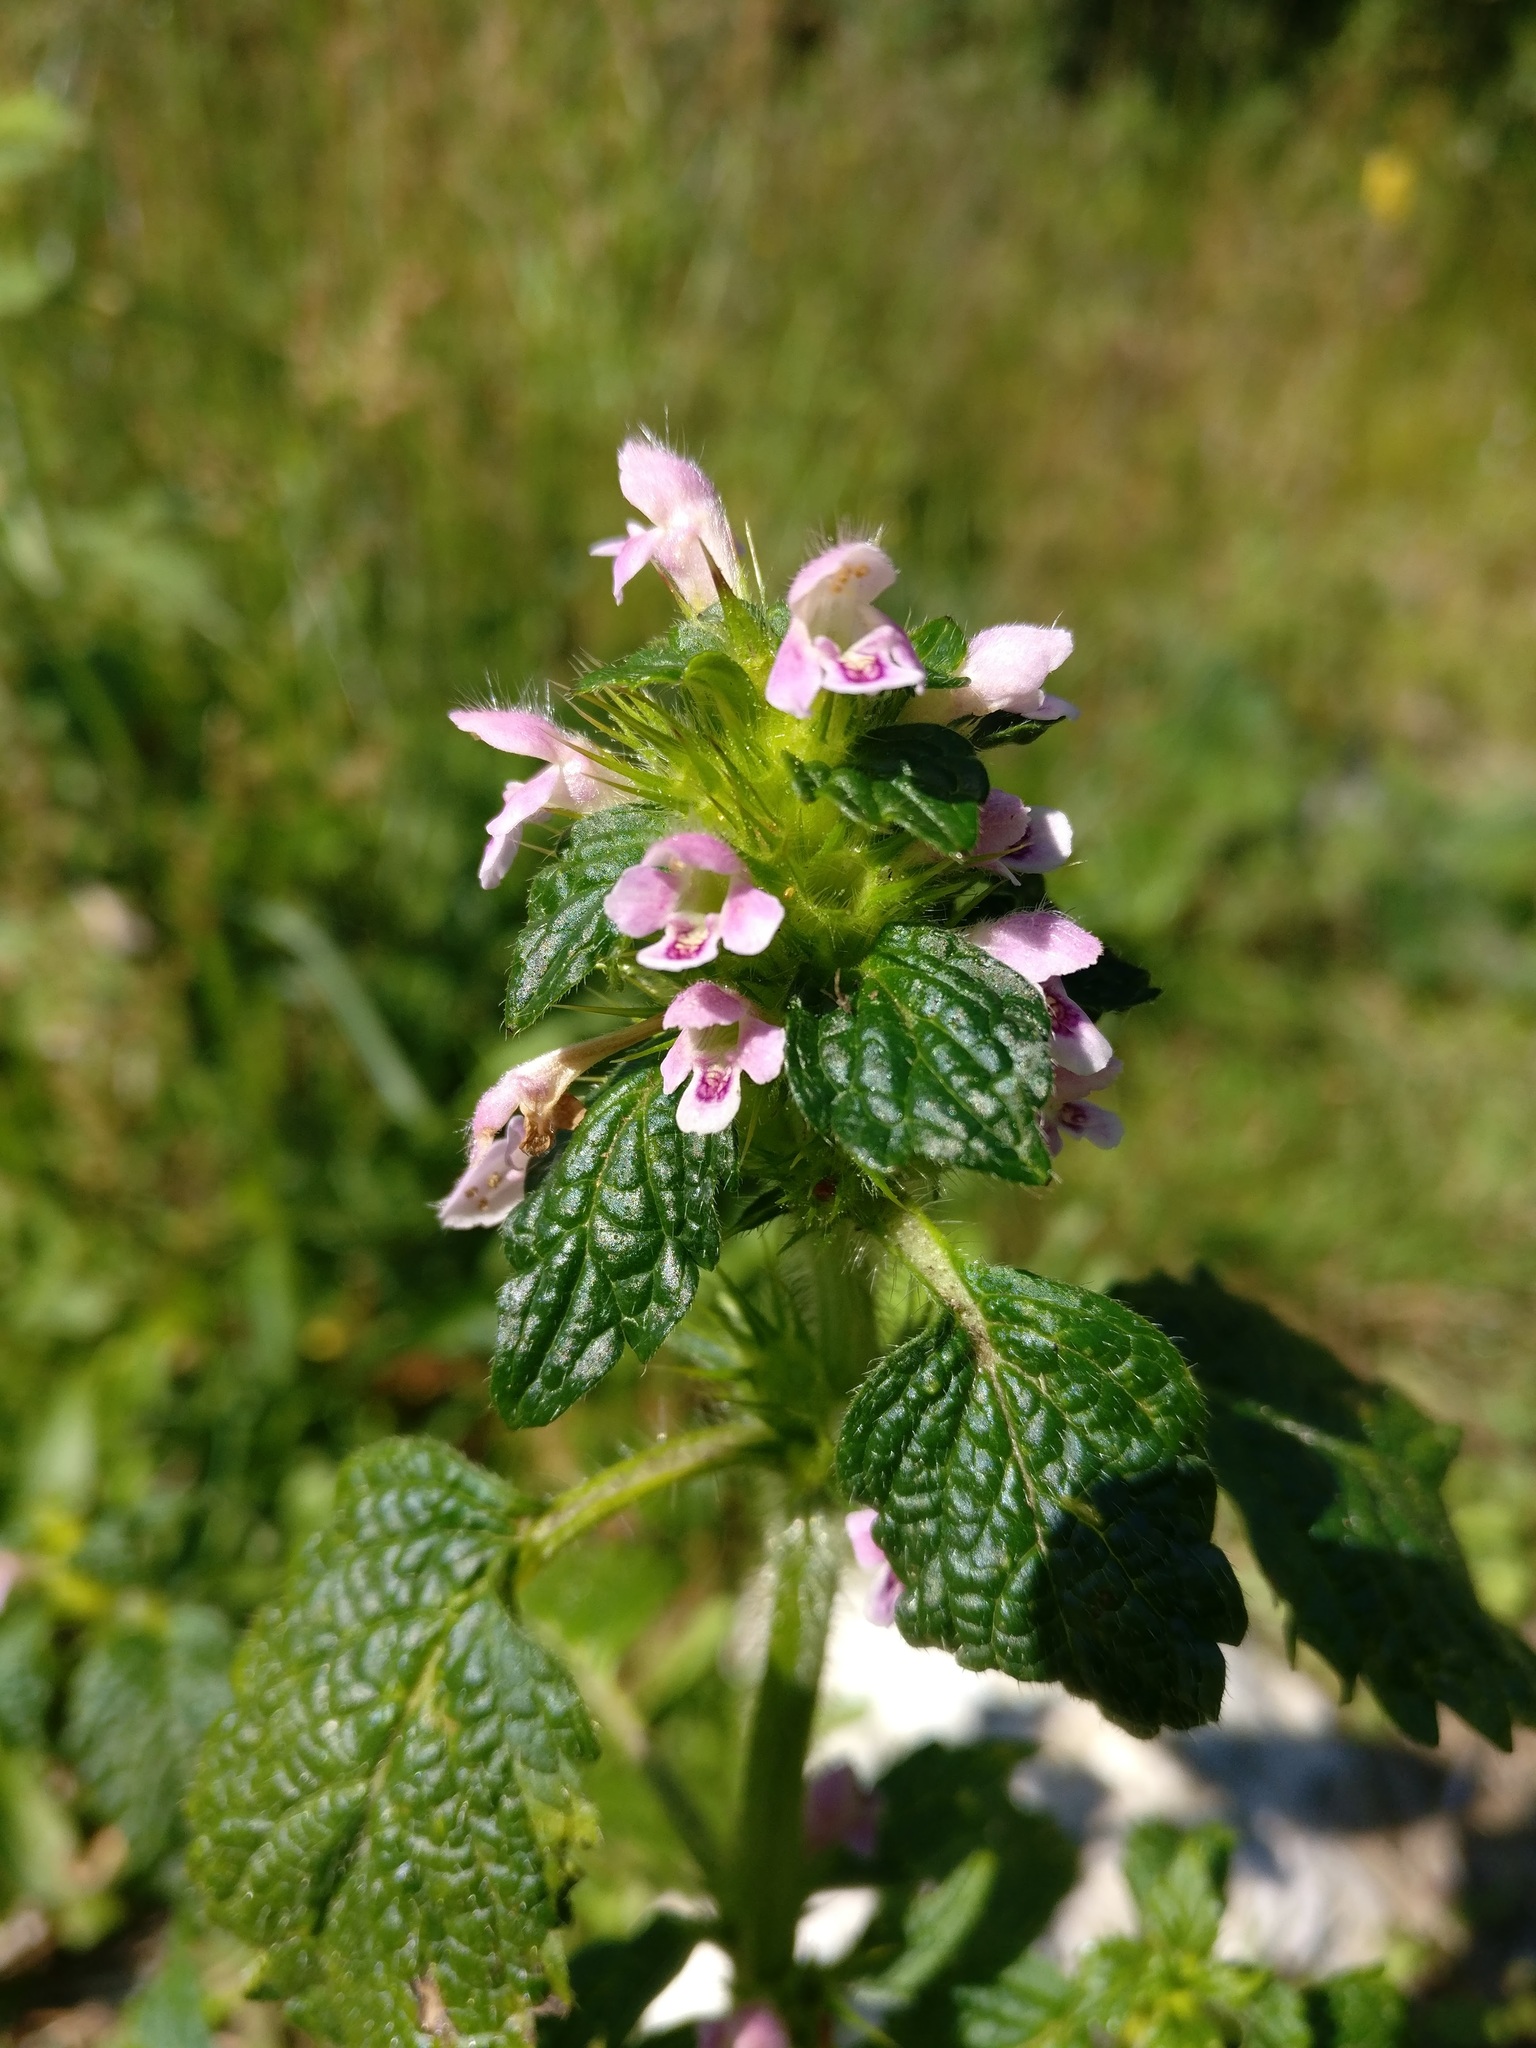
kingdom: Plantae
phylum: Tracheophyta
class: Magnoliopsida
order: Lamiales
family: Lamiaceae
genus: Galeopsis
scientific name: Galeopsis tetrahit
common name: Common hemp-nettle
